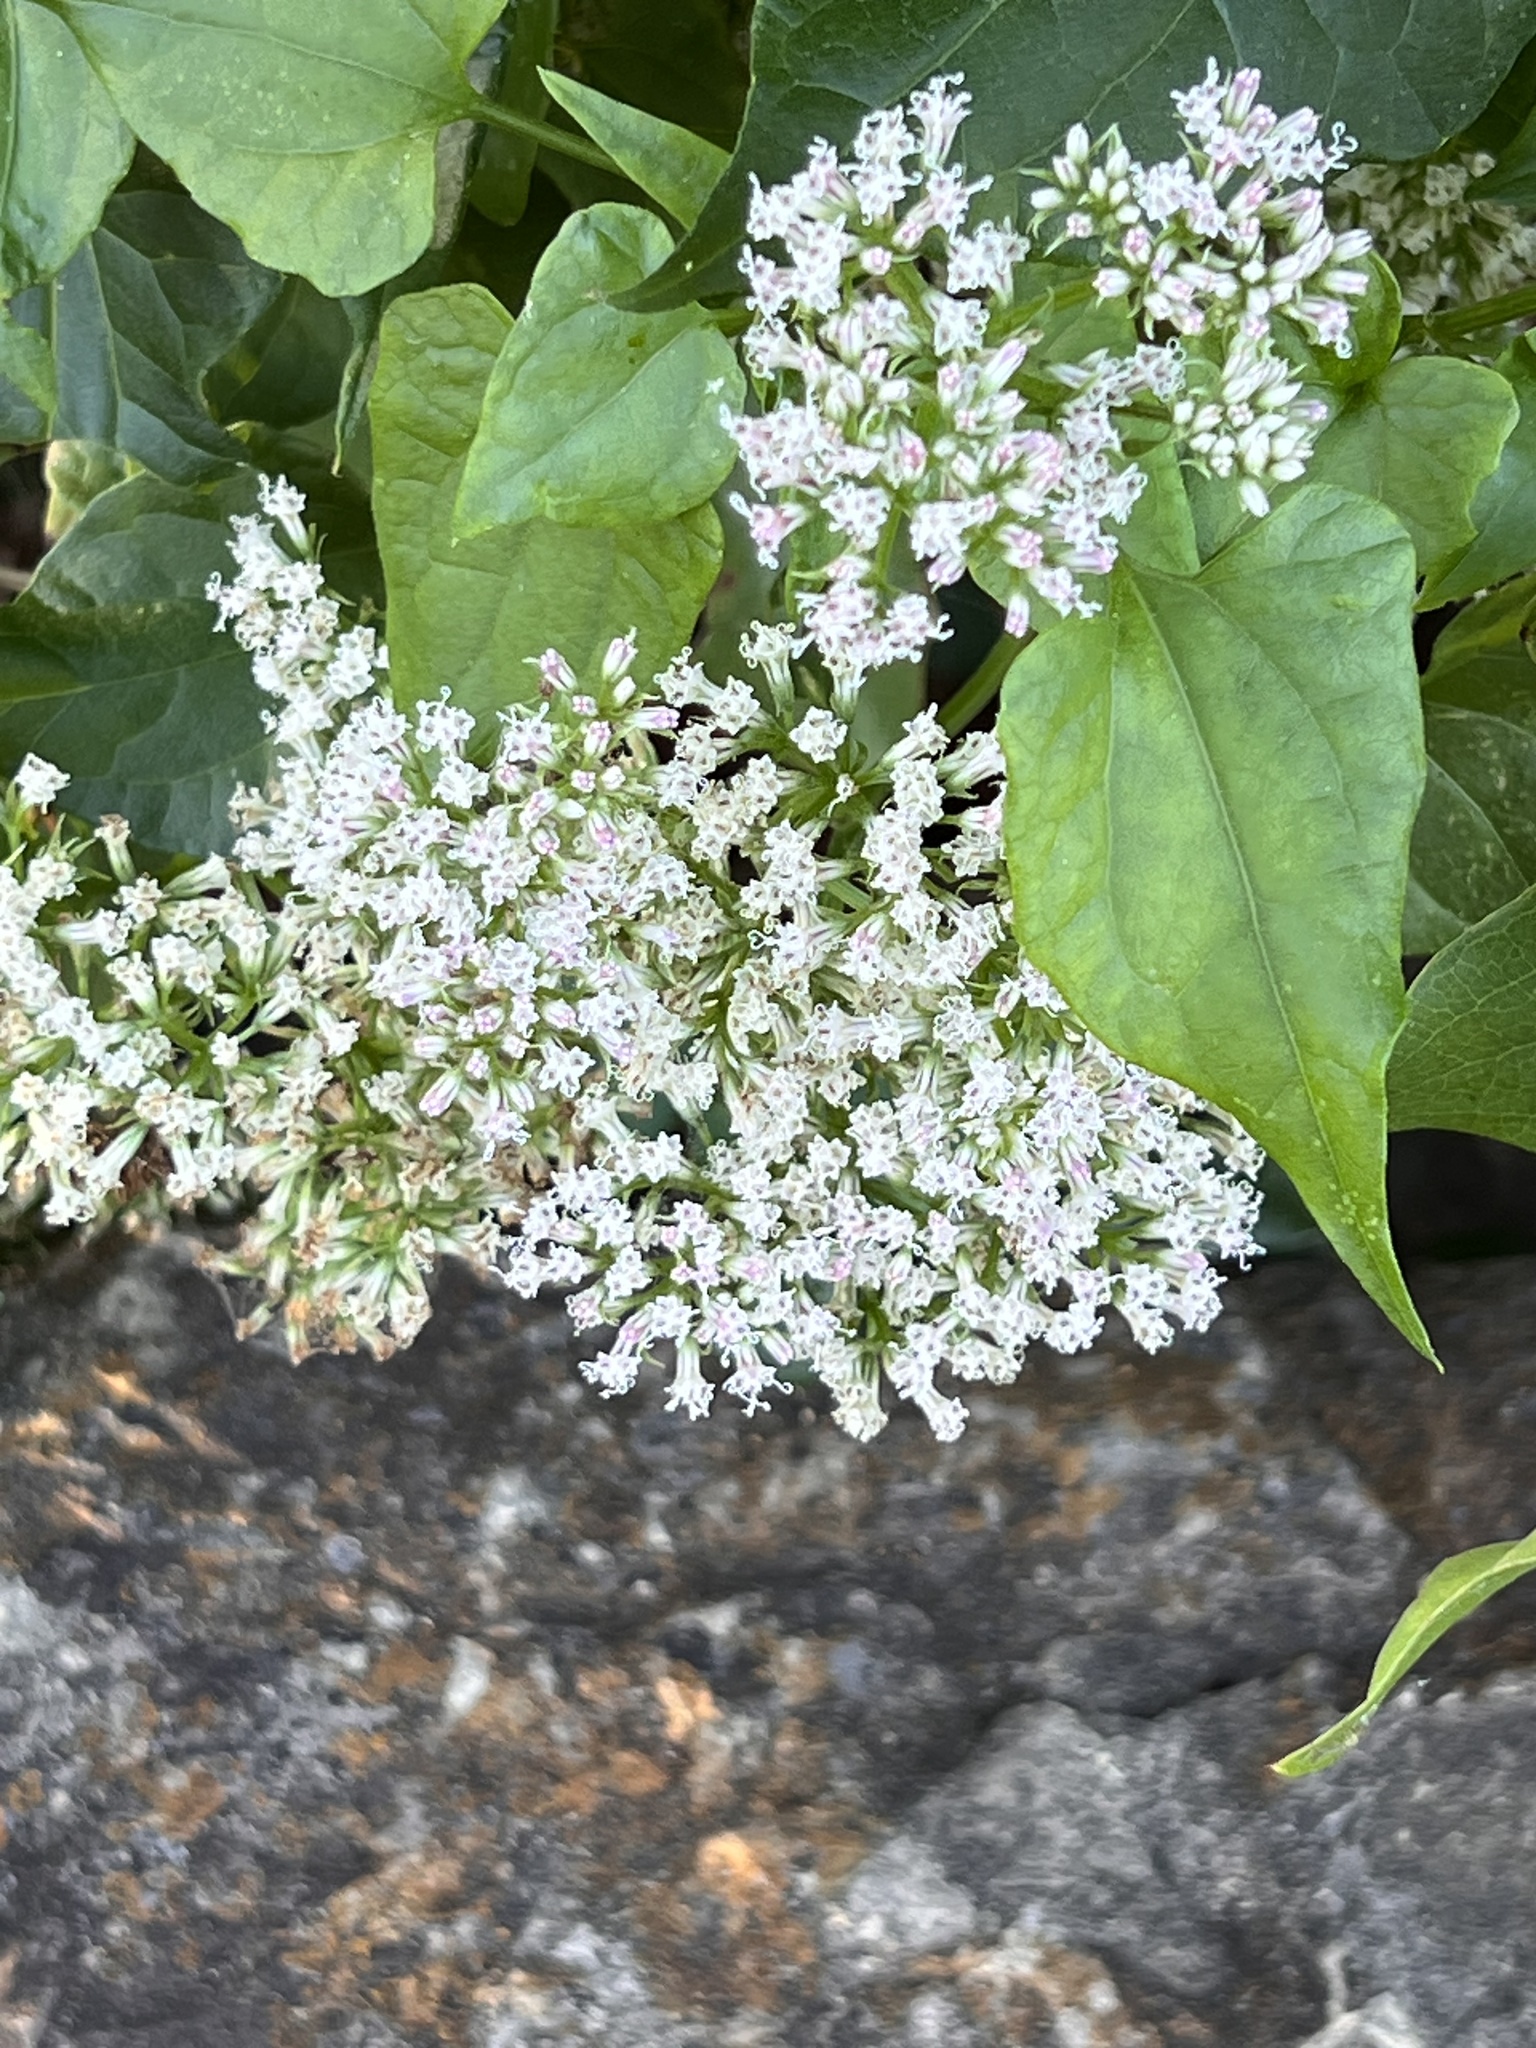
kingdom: Plantae
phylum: Tracheophyta
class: Magnoliopsida
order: Asterales
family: Asteraceae
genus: Mikania
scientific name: Mikania scandens
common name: Climbing hempvine
